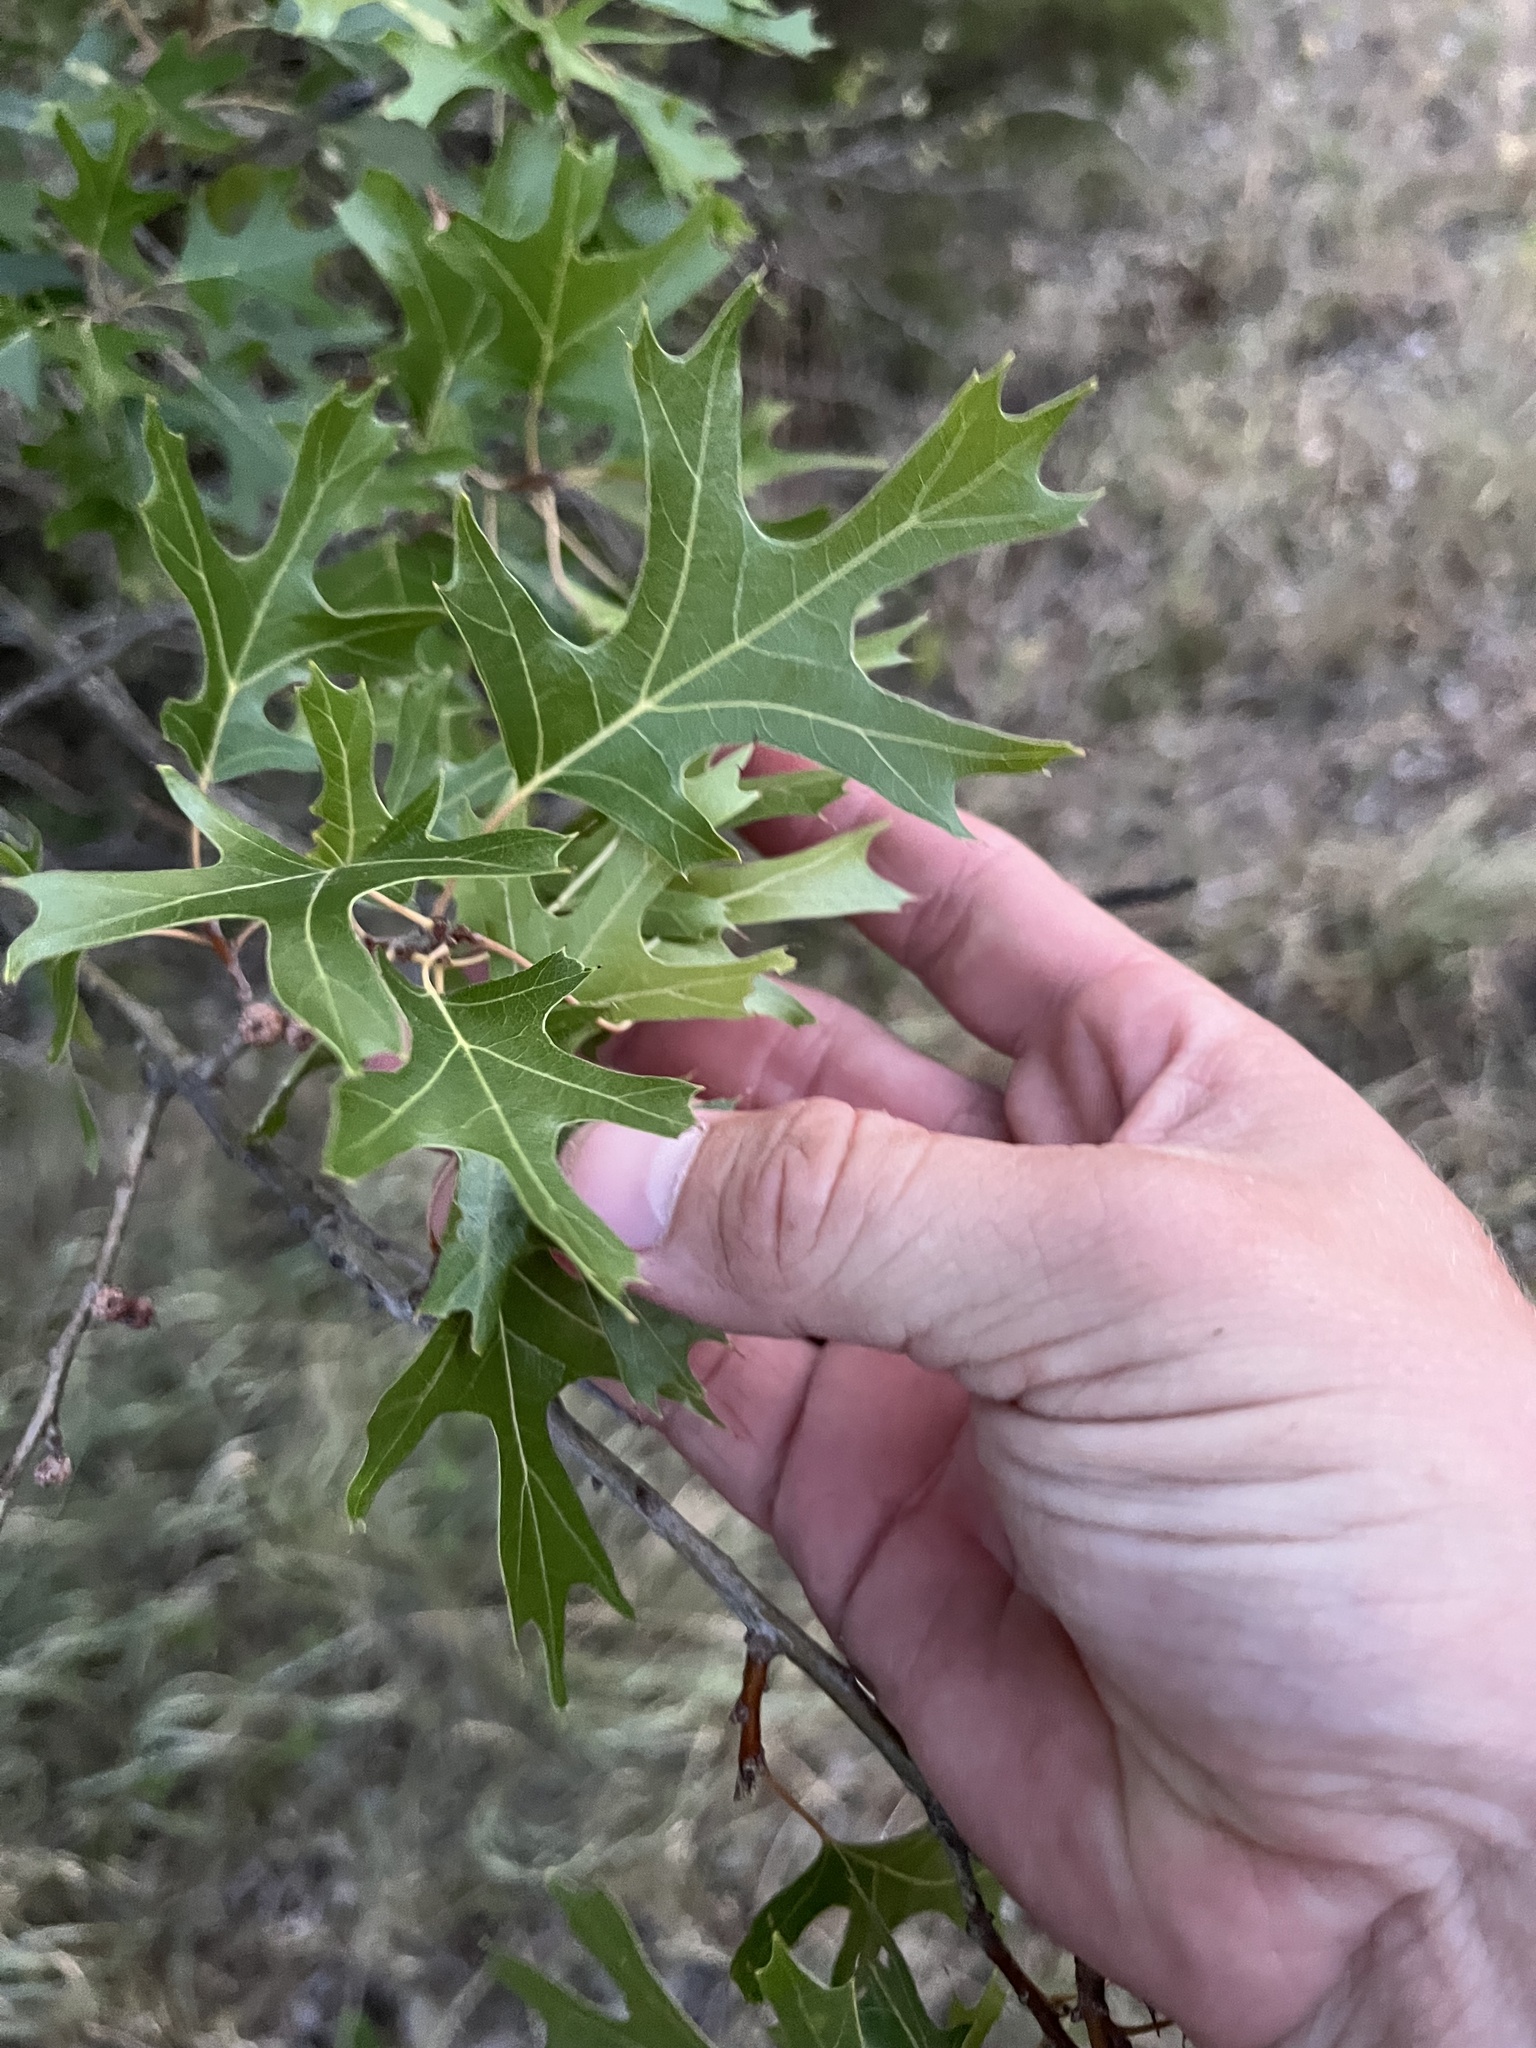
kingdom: Plantae
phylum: Tracheophyta
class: Magnoliopsida
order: Fagales
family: Fagaceae
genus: Quercus
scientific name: Quercus buckleyi
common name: Buckley oak
